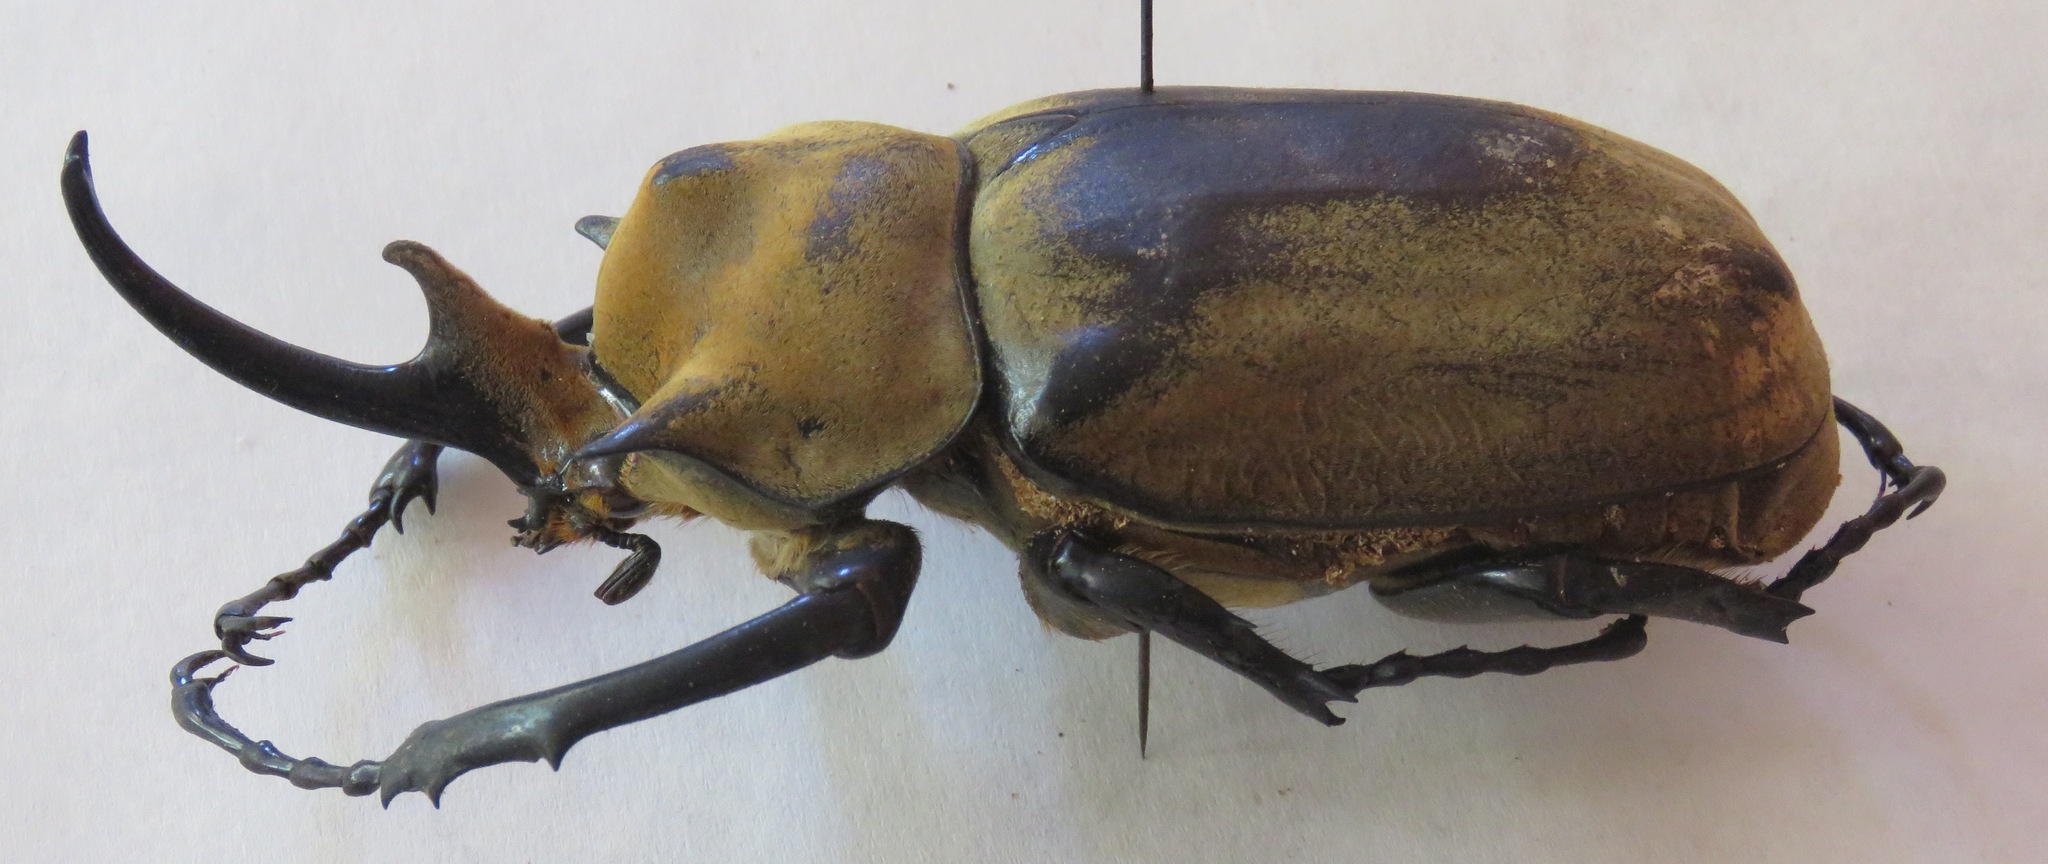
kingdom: Animalia
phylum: Arthropoda
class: Insecta
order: Coleoptera
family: Scarabaeidae
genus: Megasoma
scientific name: Megasoma elephas
